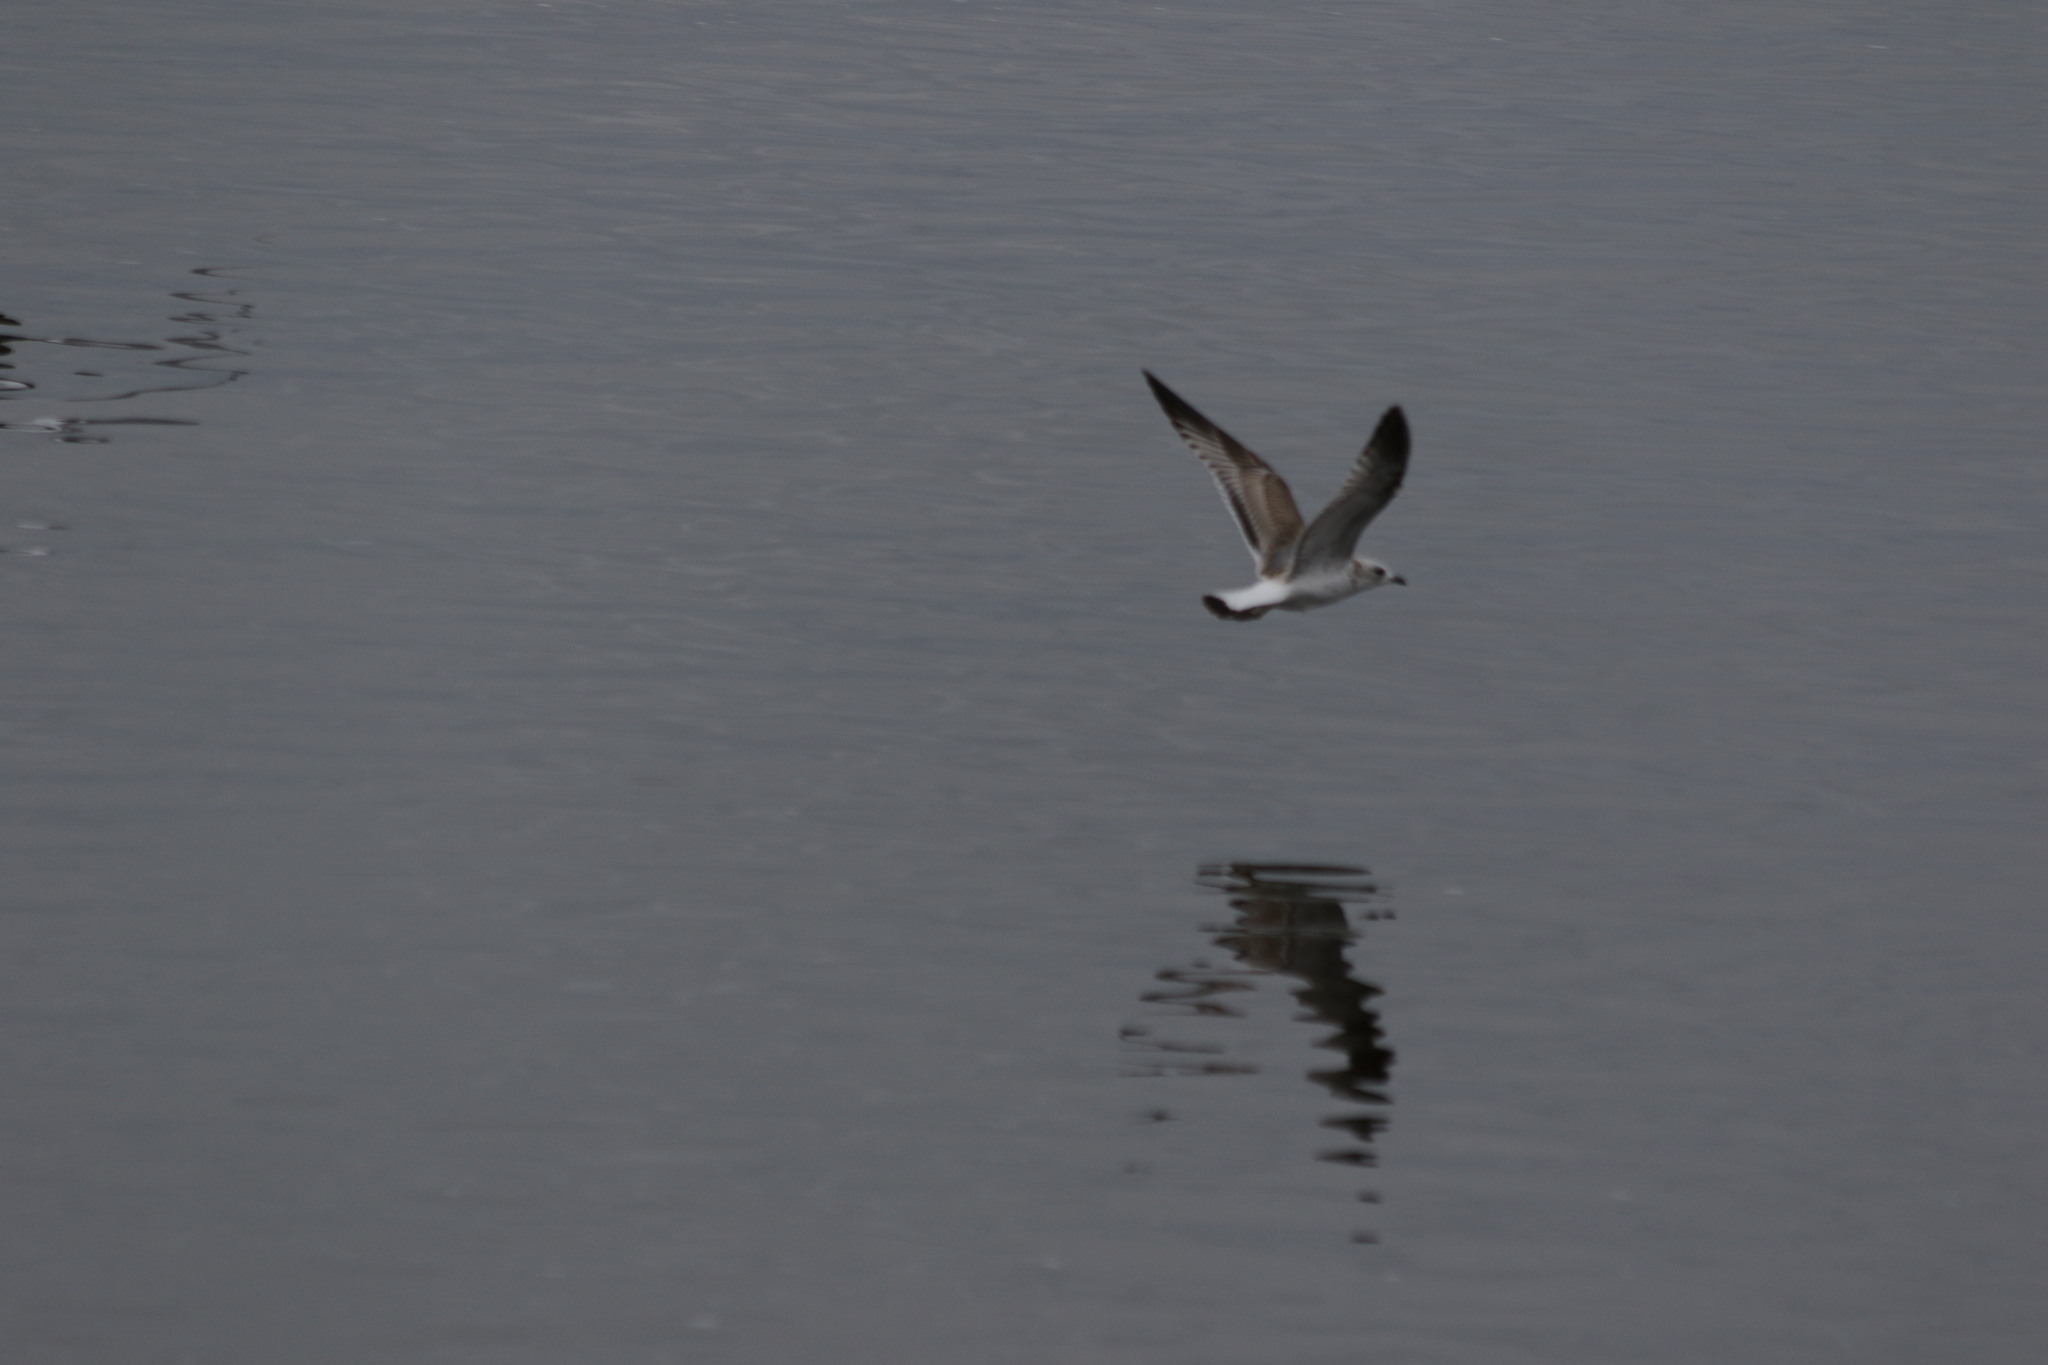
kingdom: Animalia
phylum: Chordata
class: Aves
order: Charadriiformes
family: Laridae
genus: Larus
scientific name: Larus canus
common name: Mew gull
